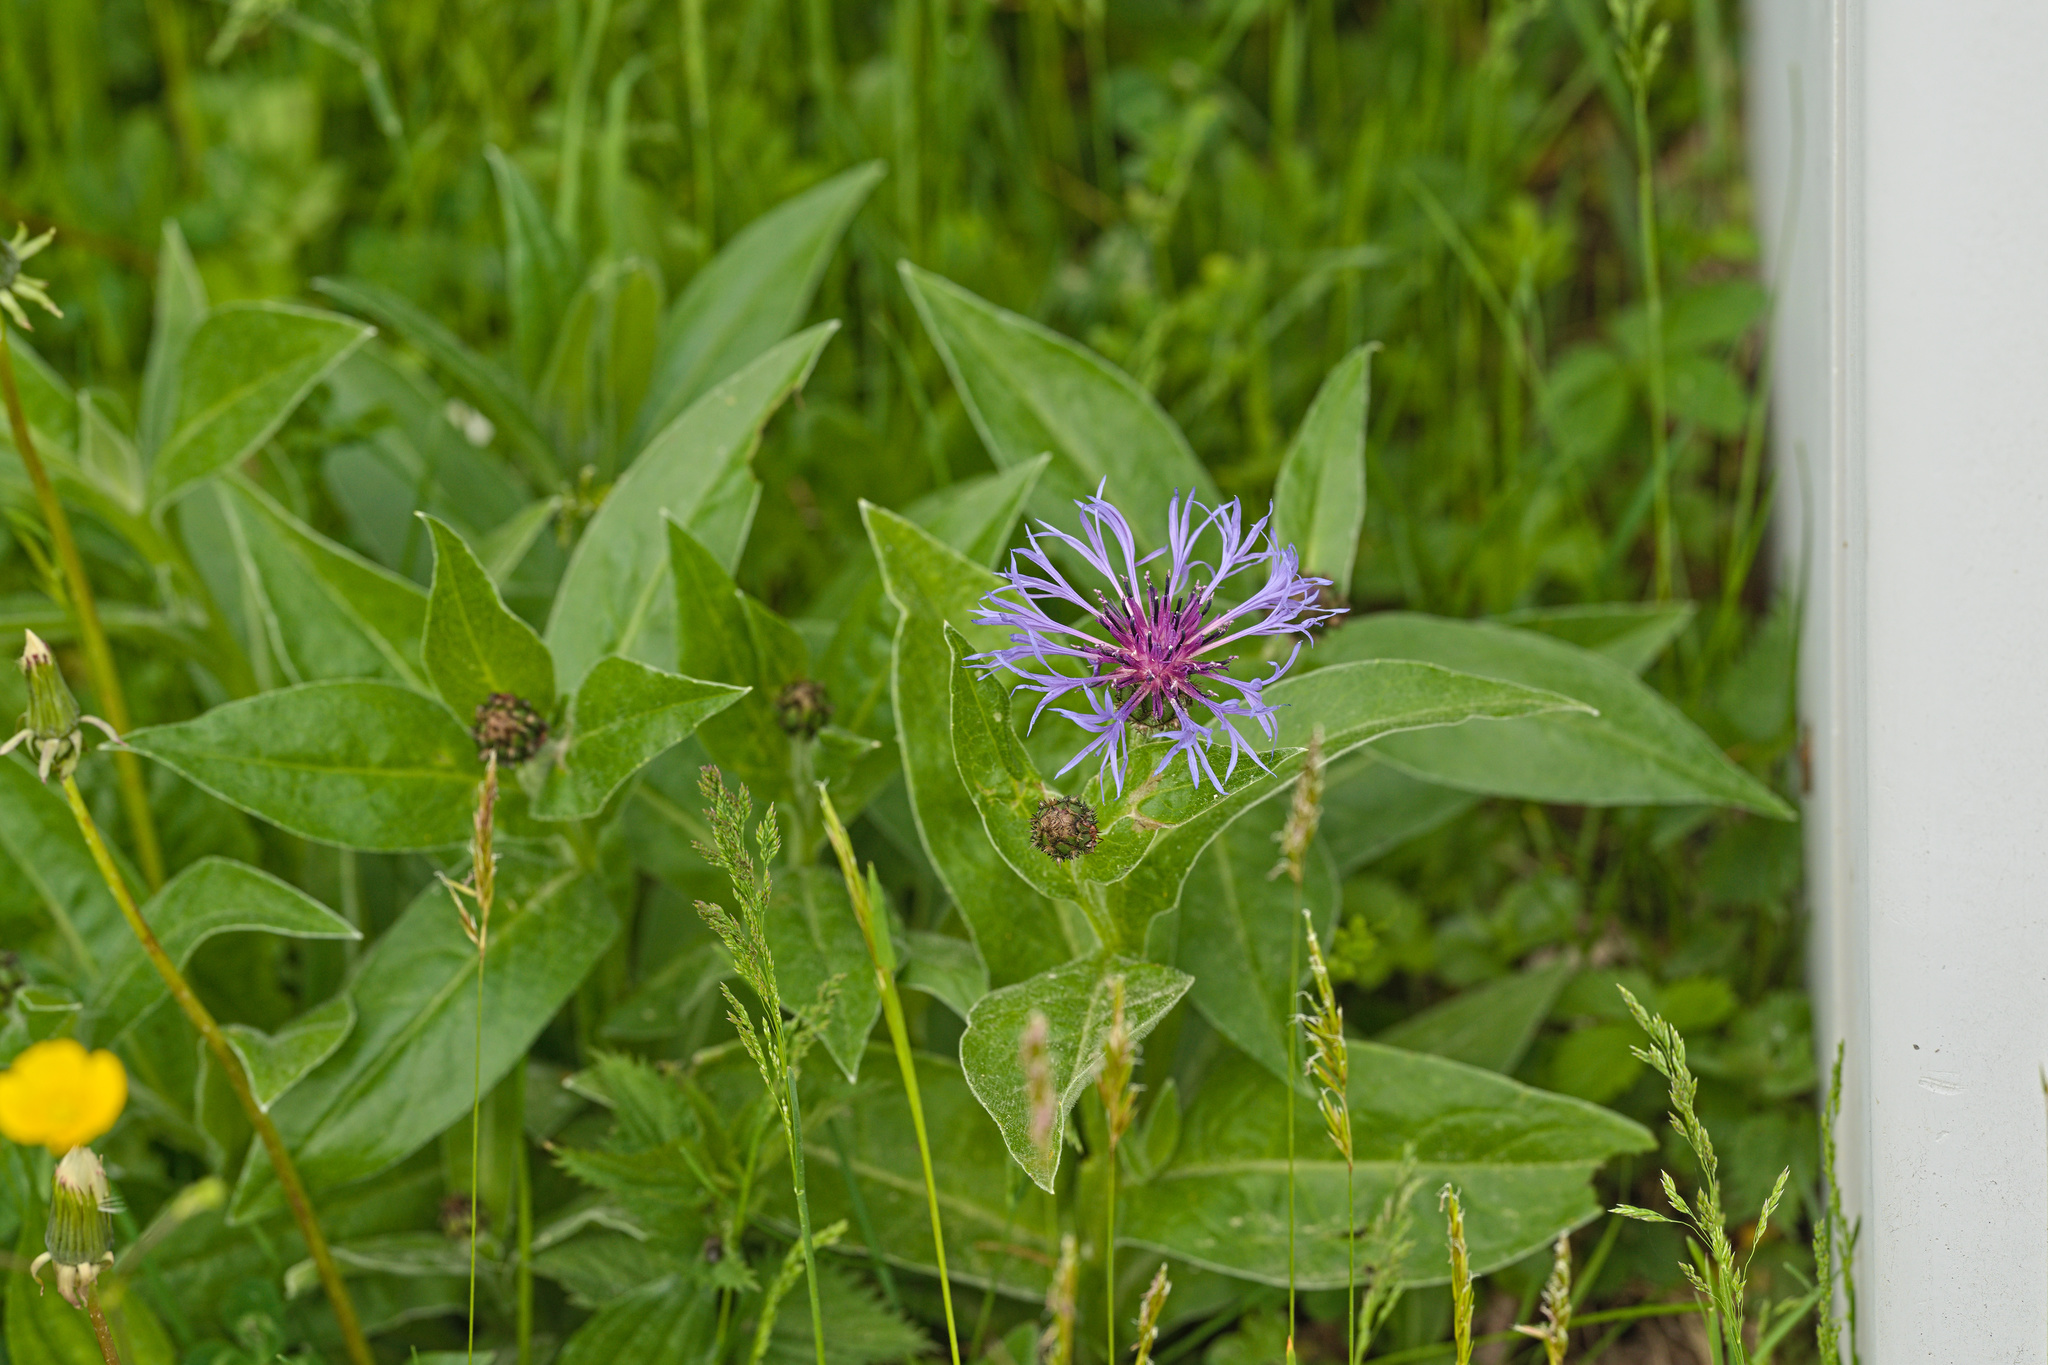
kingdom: Plantae
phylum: Tracheophyta
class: Magnoliopsida
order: Asterales
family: Asteraceae
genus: Centaurea
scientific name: Centaurea montana
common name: Perennial cornflower
